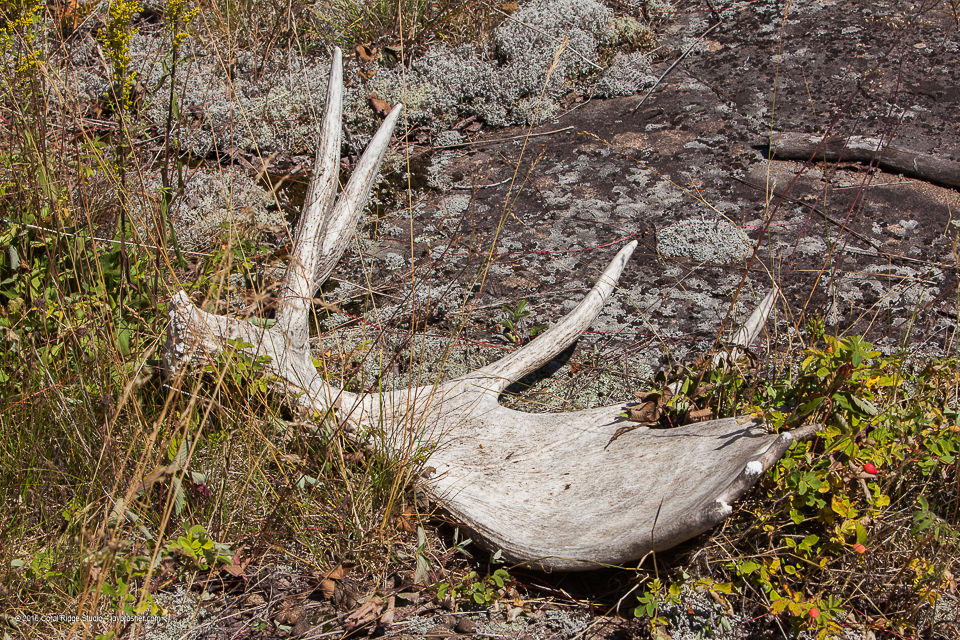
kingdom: Animalia
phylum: Chordata
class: Mammalia
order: Artiodactyla
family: Cervidae
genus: Alces
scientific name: Alces alces
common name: Moose
